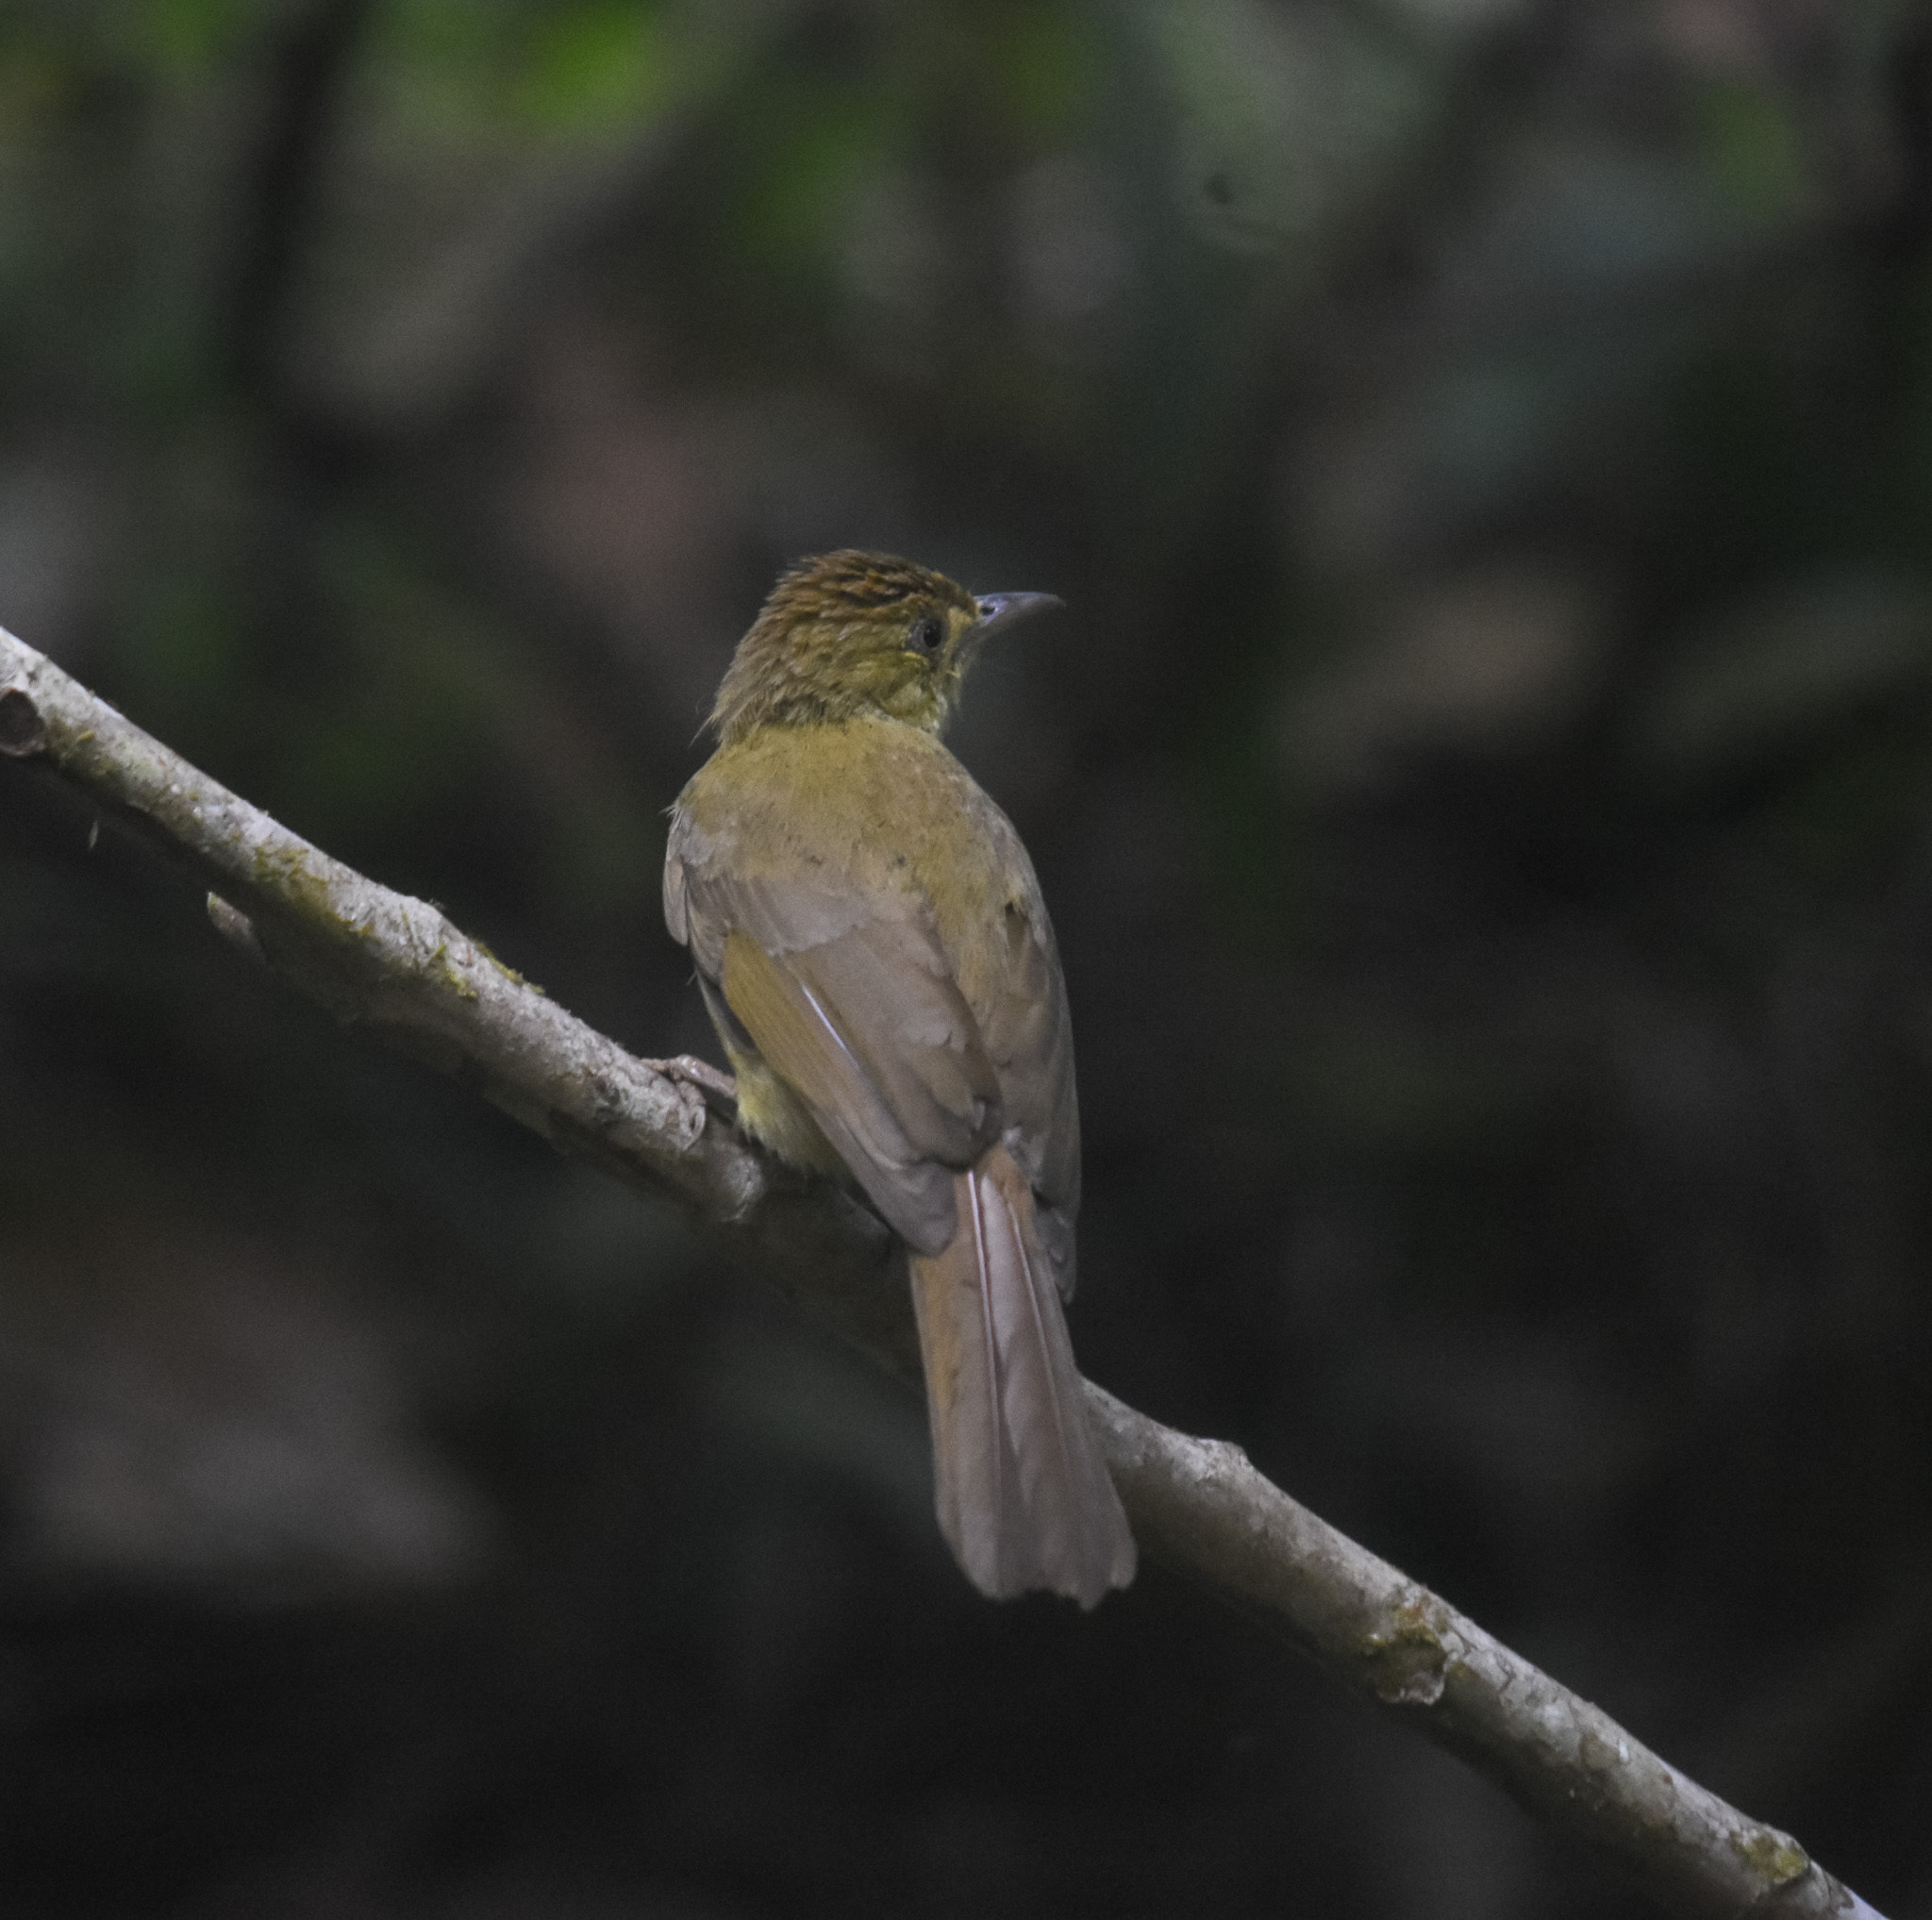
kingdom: Animalia
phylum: Chordata
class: Aves
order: Passeriformes
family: Pycnonotidae
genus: Iole
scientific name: Iole virescens
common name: Olive bulbul
